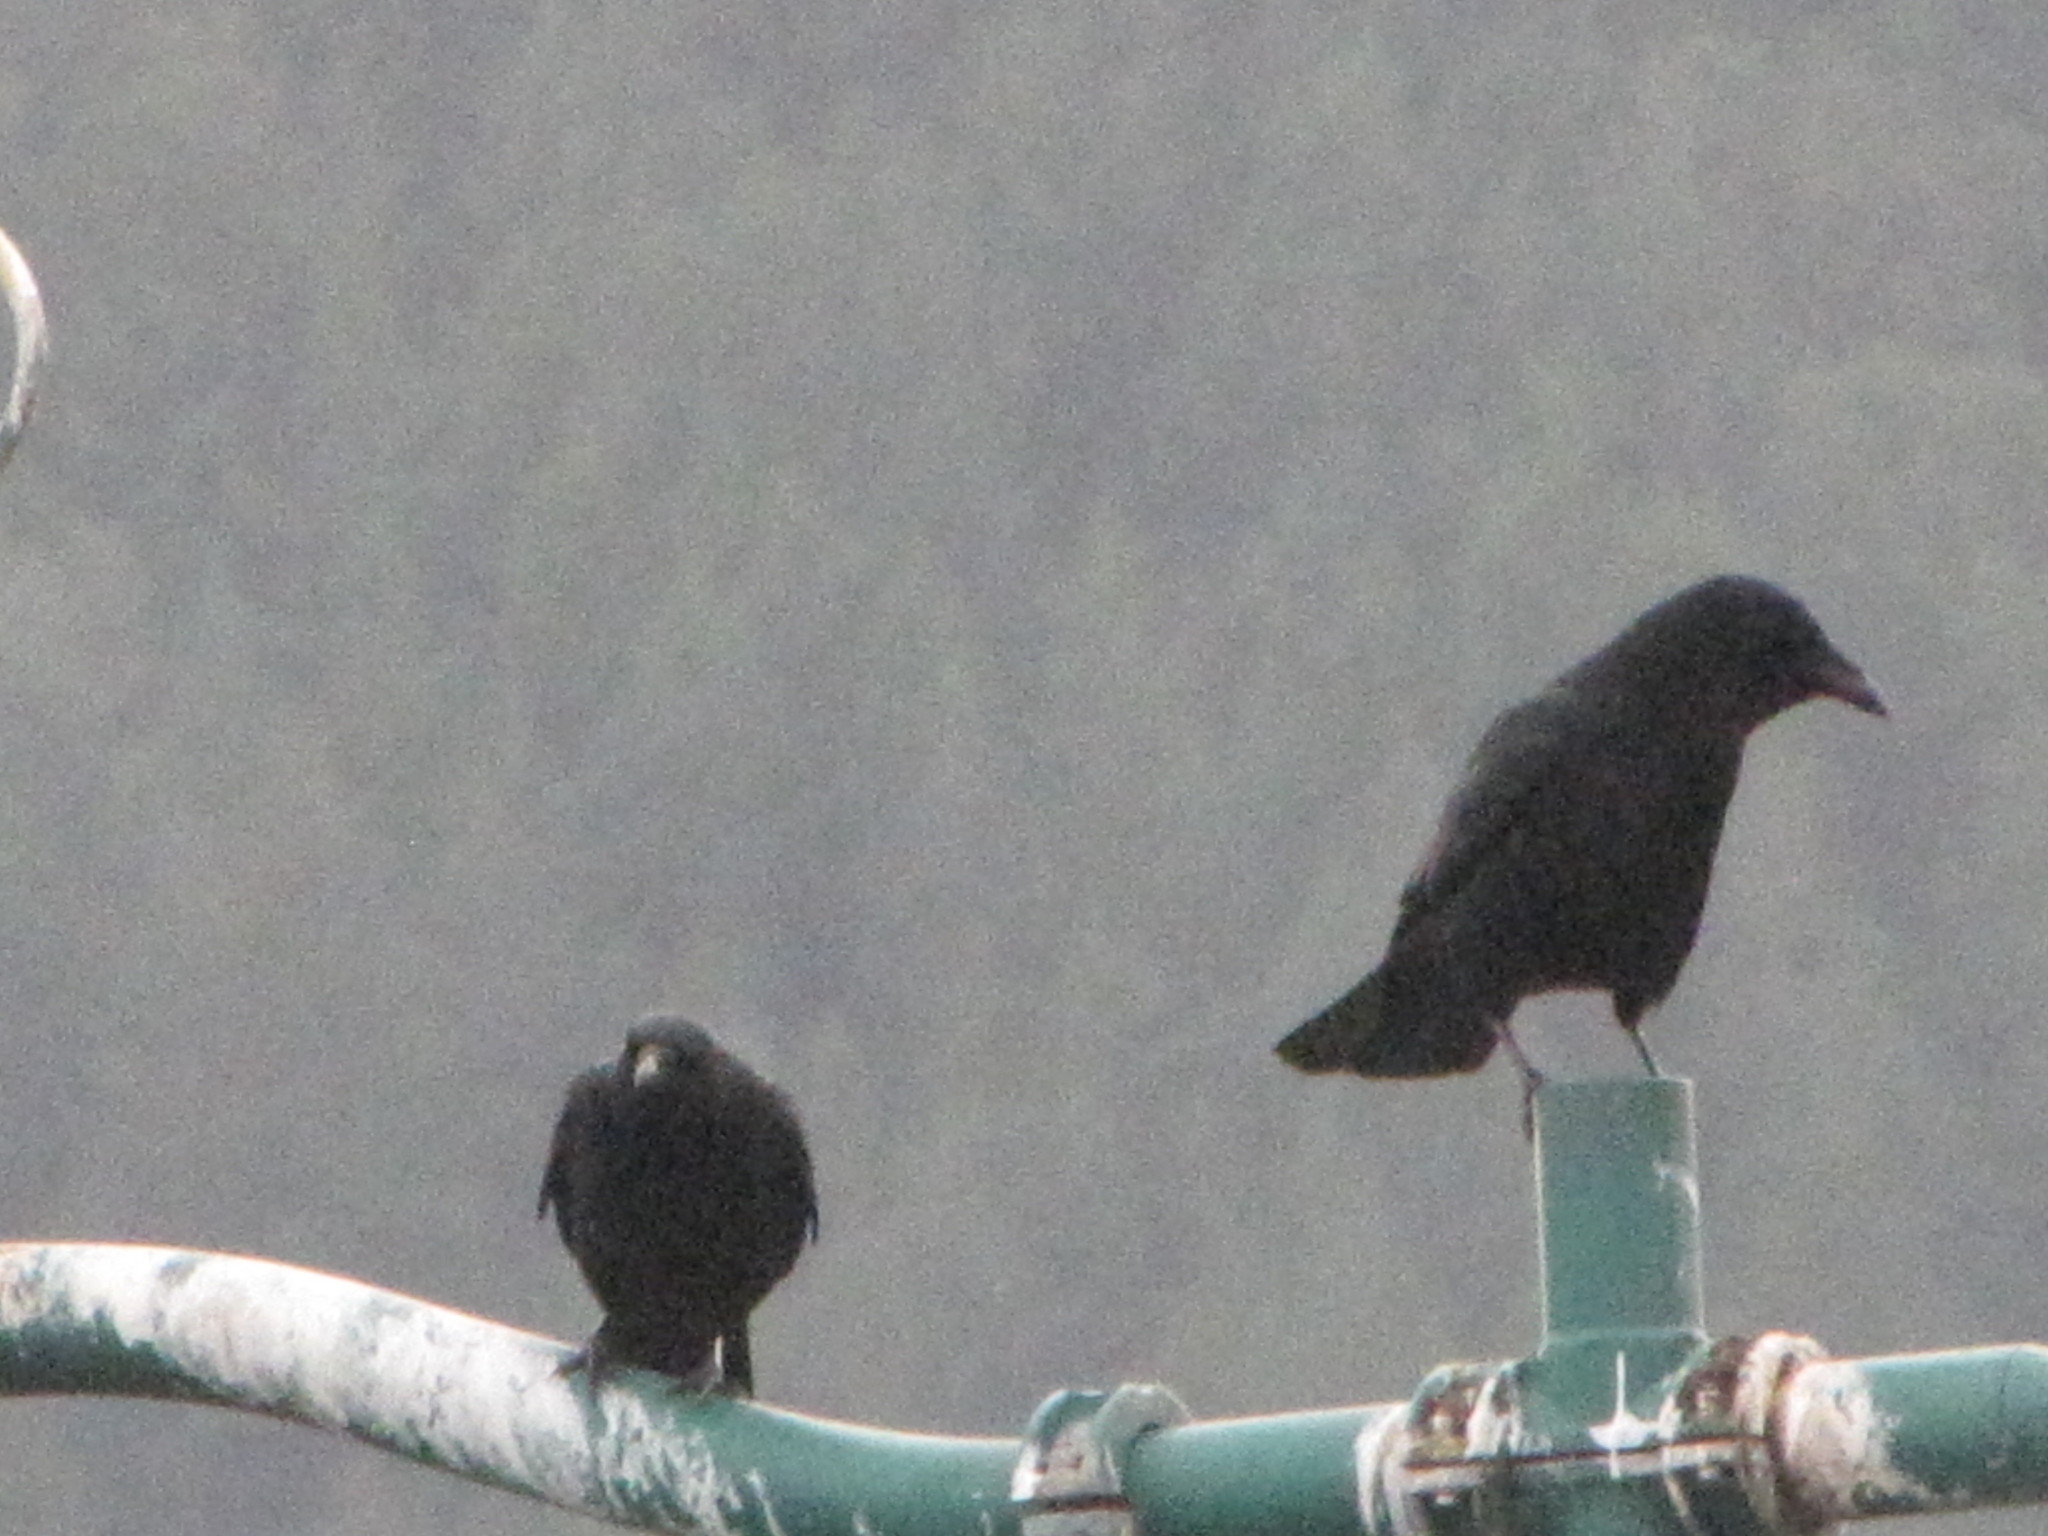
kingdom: Animalia
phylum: Chordata
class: Aves
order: Passeriformes
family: Corvidae
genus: Corvus
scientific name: Corvus brachyrhynchos
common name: American crow
